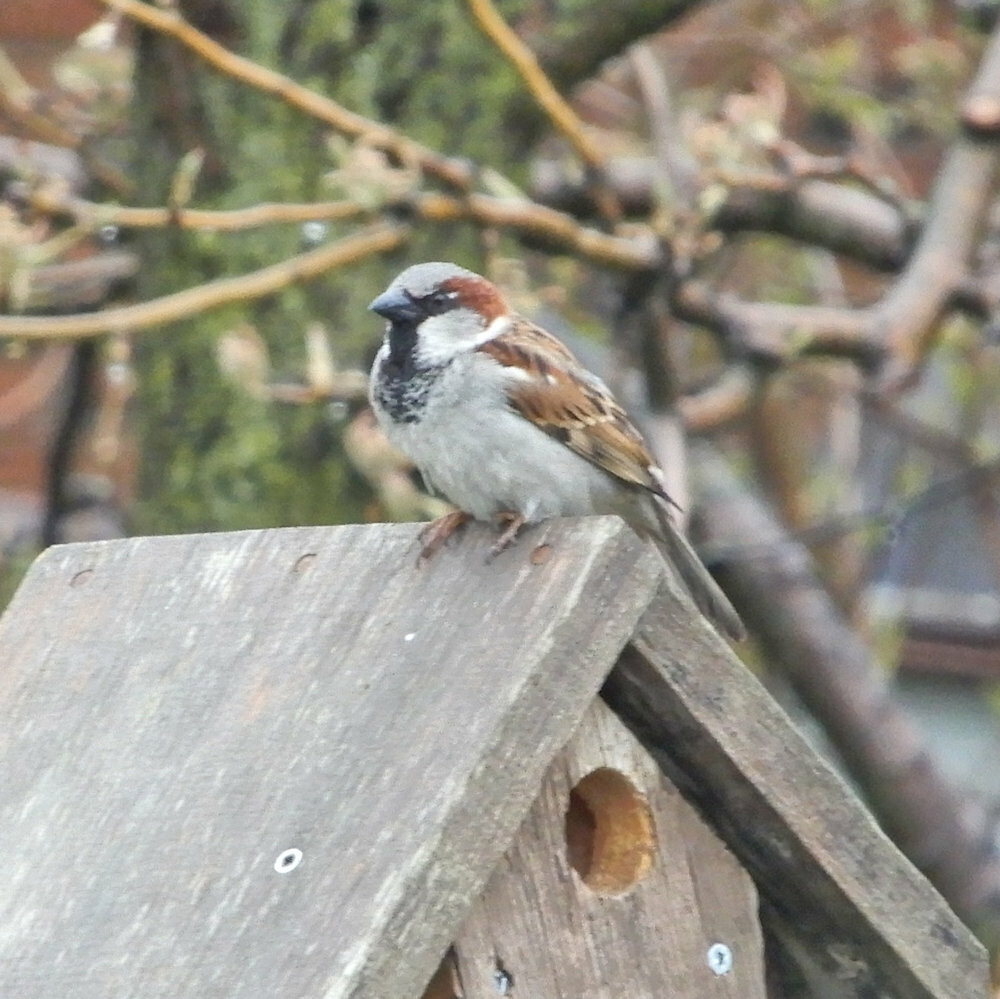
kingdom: Animalia
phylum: Chordata
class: Aves
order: Passeriformes
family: Passeridae
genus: Passer
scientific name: Passer domesticus
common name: House sparrow
